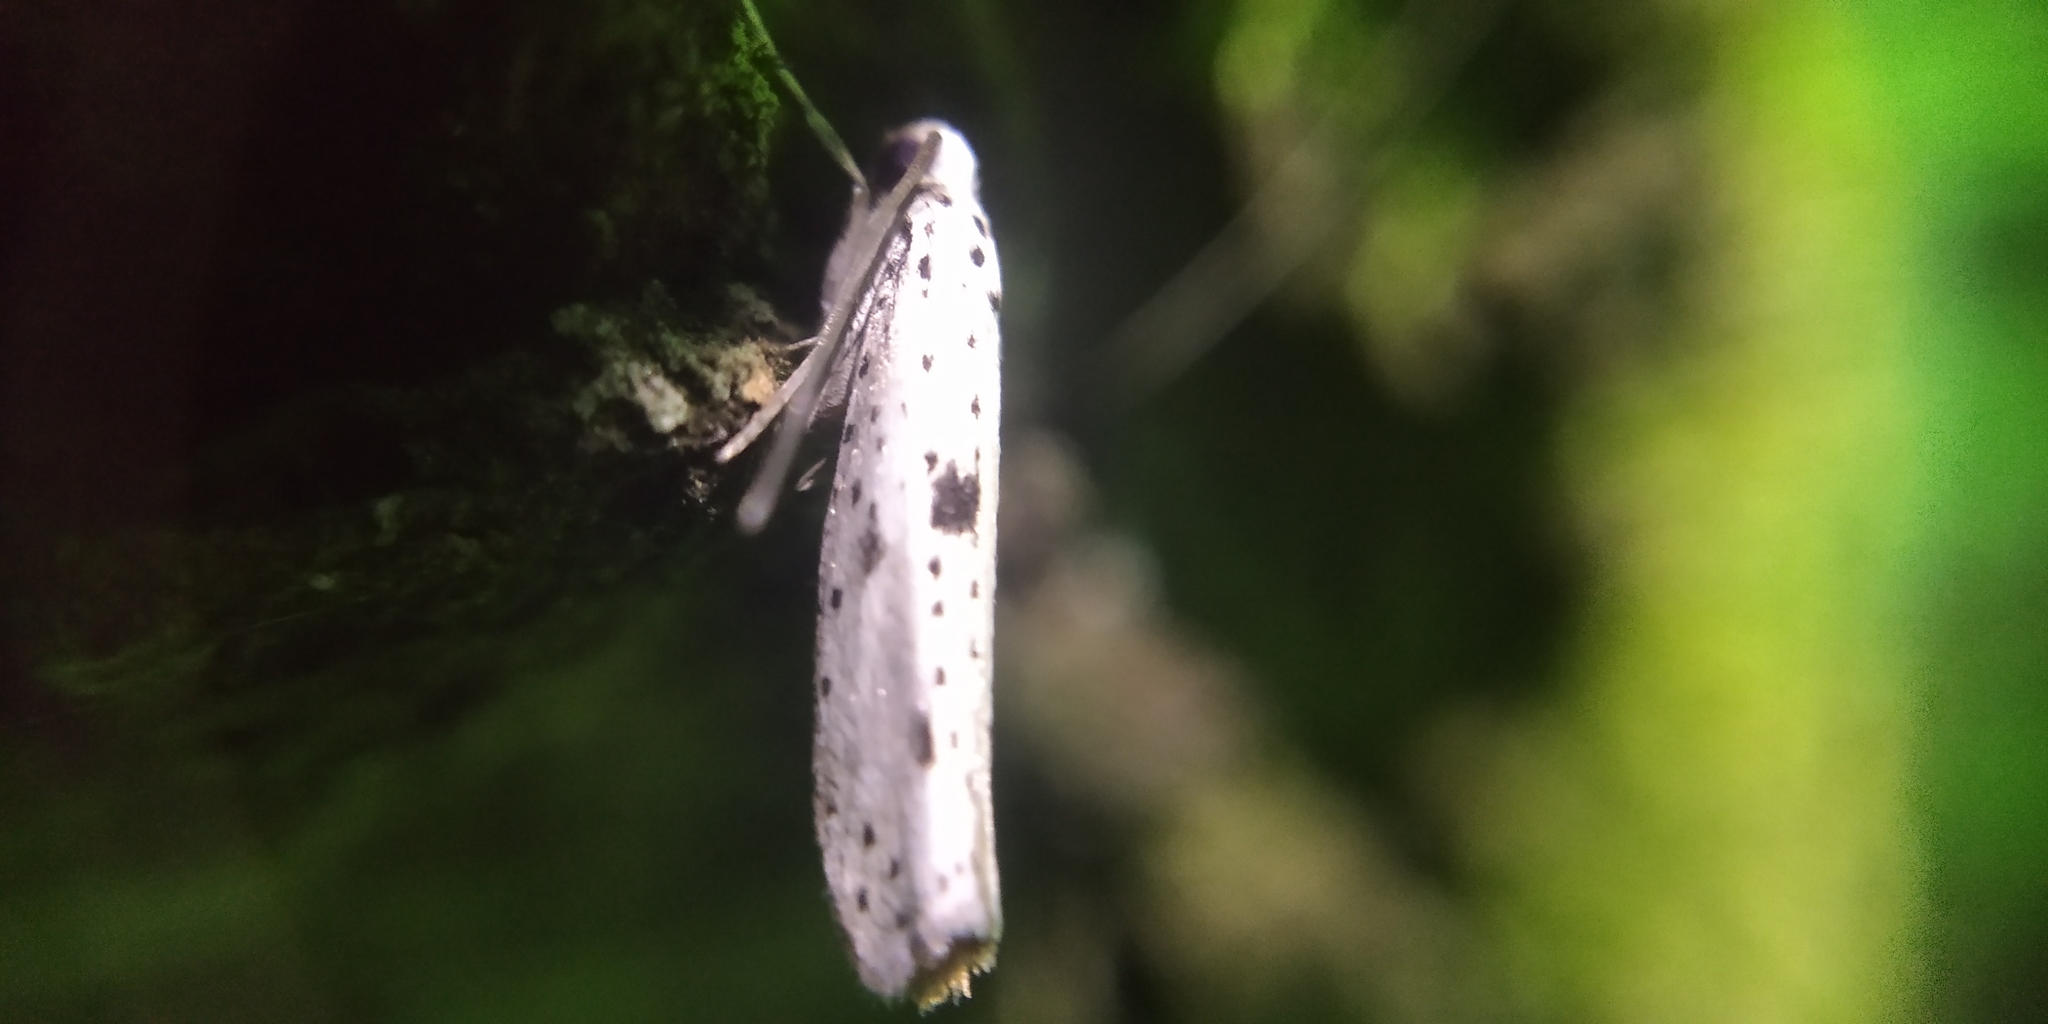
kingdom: Animalia
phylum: Arthropoda
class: Insecta
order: Lepidoptera
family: Yponomeutidae
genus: Yponomeuta
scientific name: Yponomeuta plumbella
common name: Black-tipped ermine
